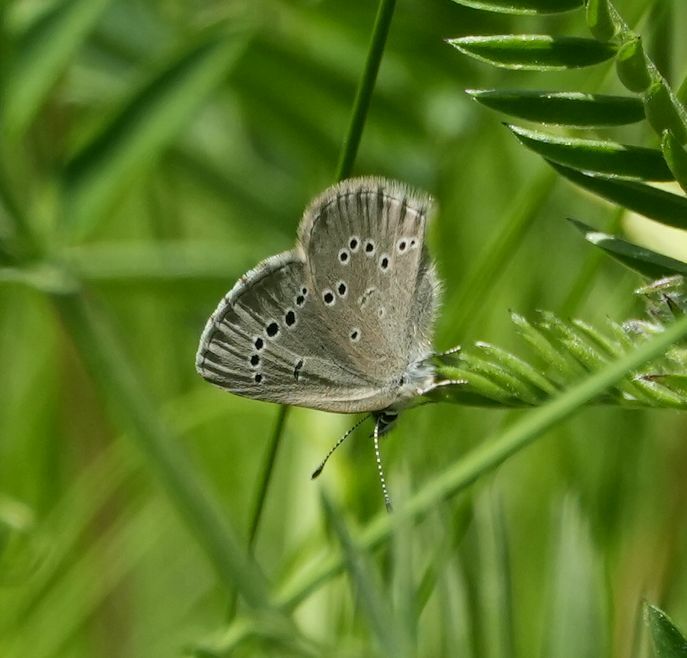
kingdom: Animalia
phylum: Arthropoda
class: Insecta
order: Lepidoptera
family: Lycaenidae
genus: Glaucopsyche
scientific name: Glaucopsyche lygdamus
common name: Silvery blue
